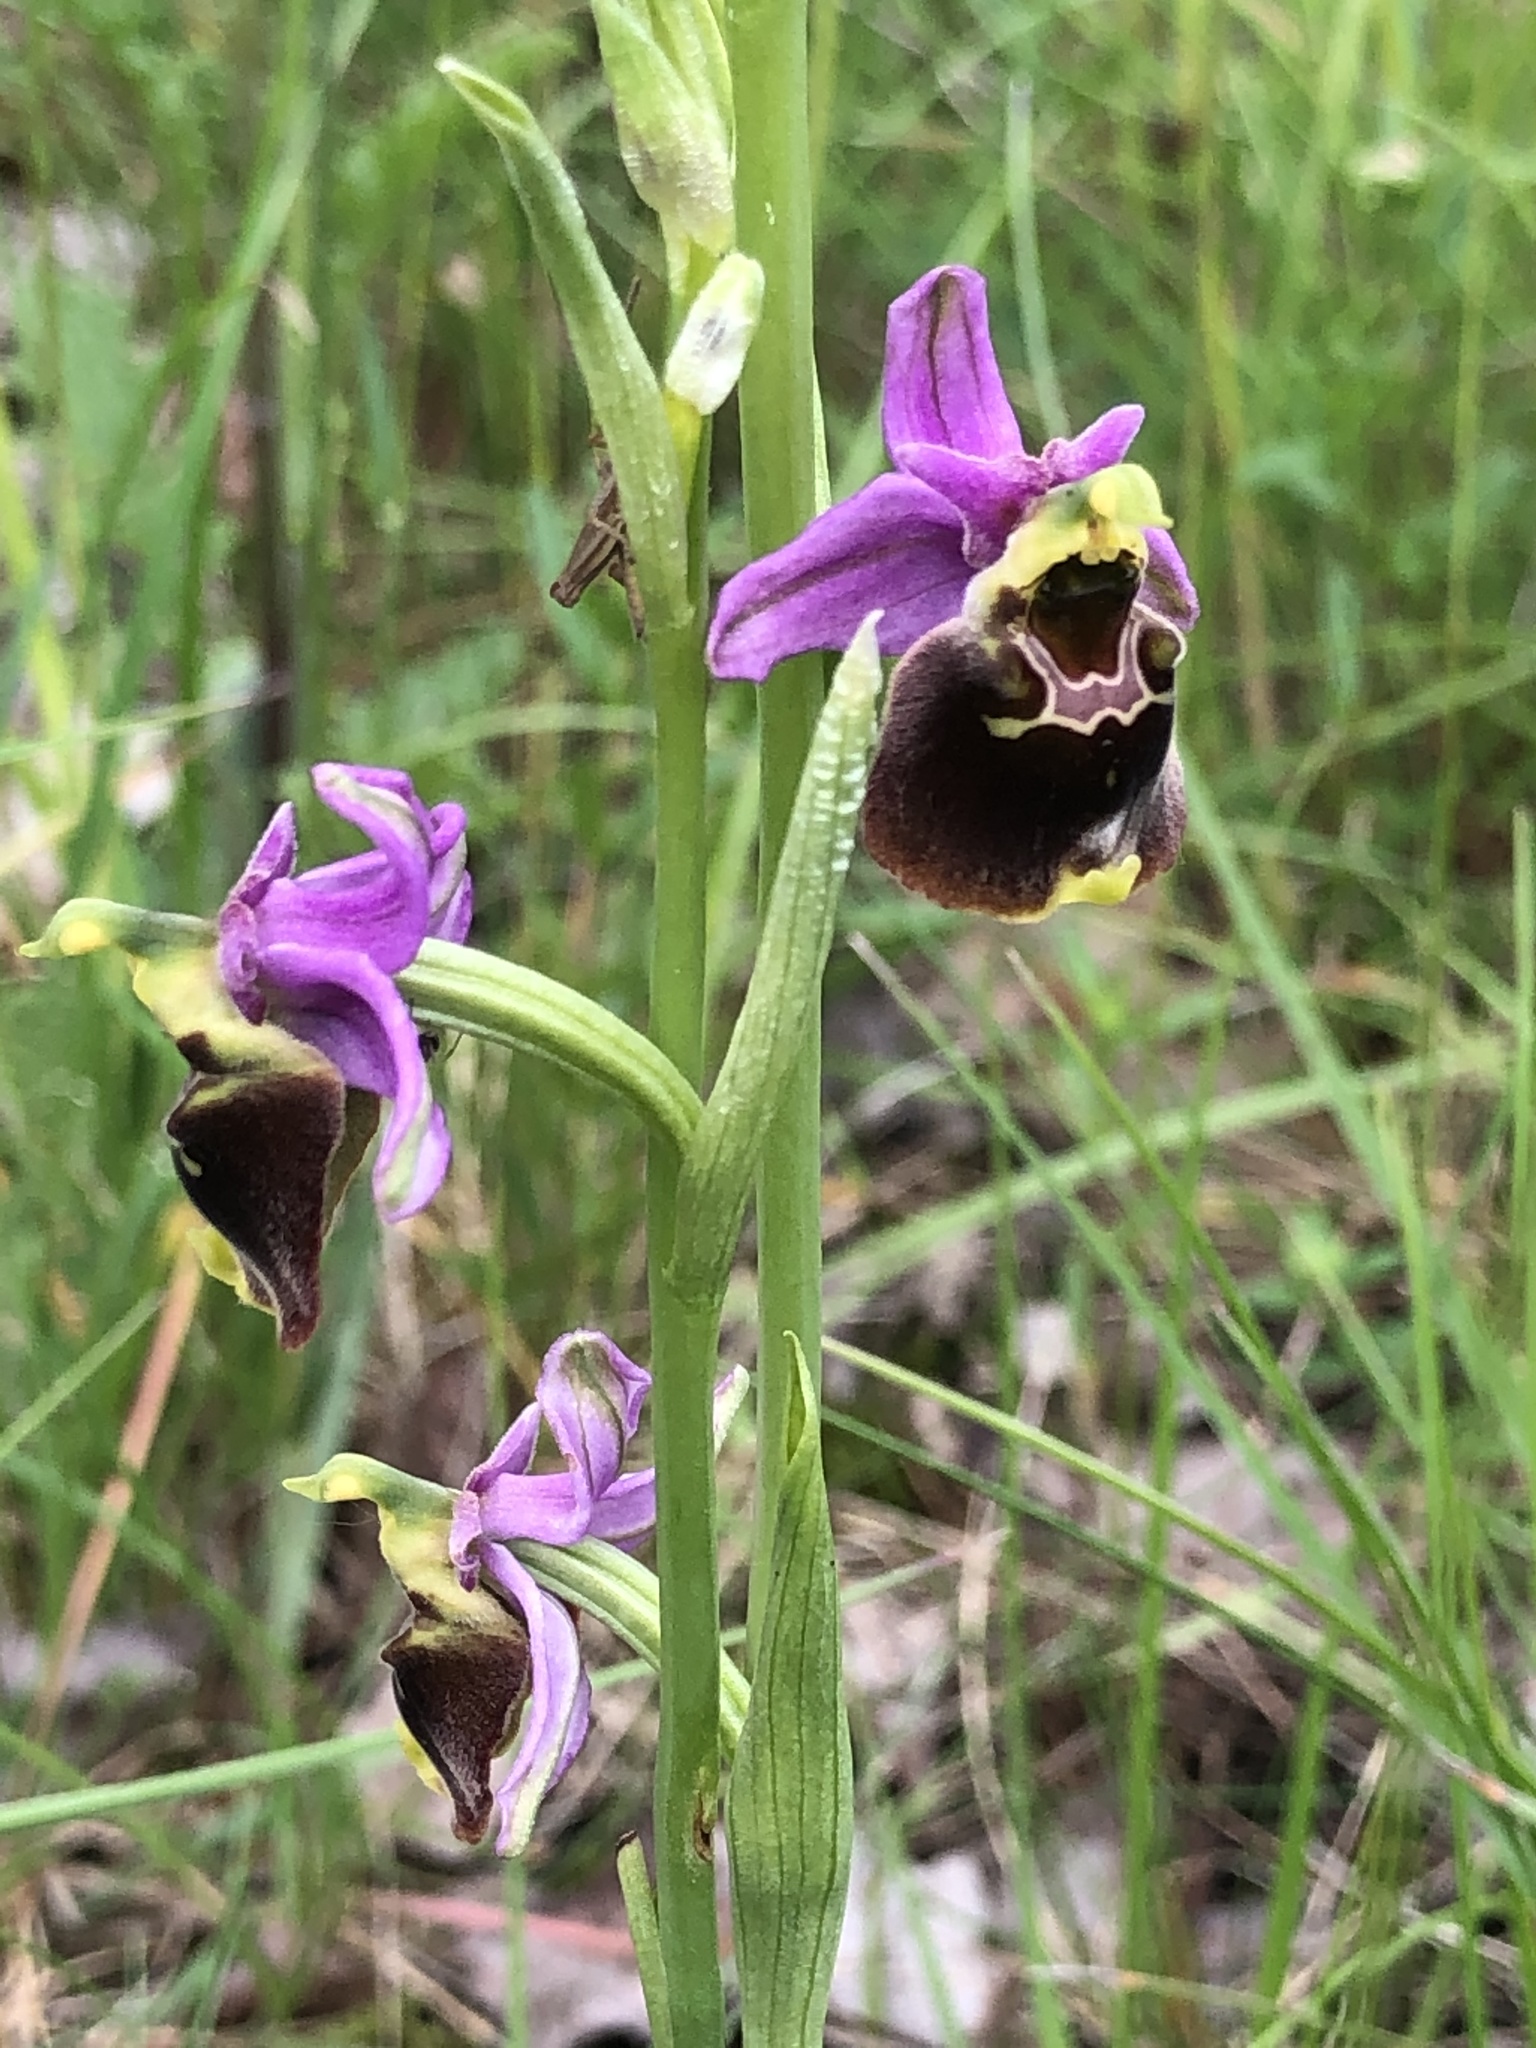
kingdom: Plantae
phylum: Tracheophyta
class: Liliopsida
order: Asparagales
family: Orchidaceae
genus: Ophrys
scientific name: Ophrys holosericea
